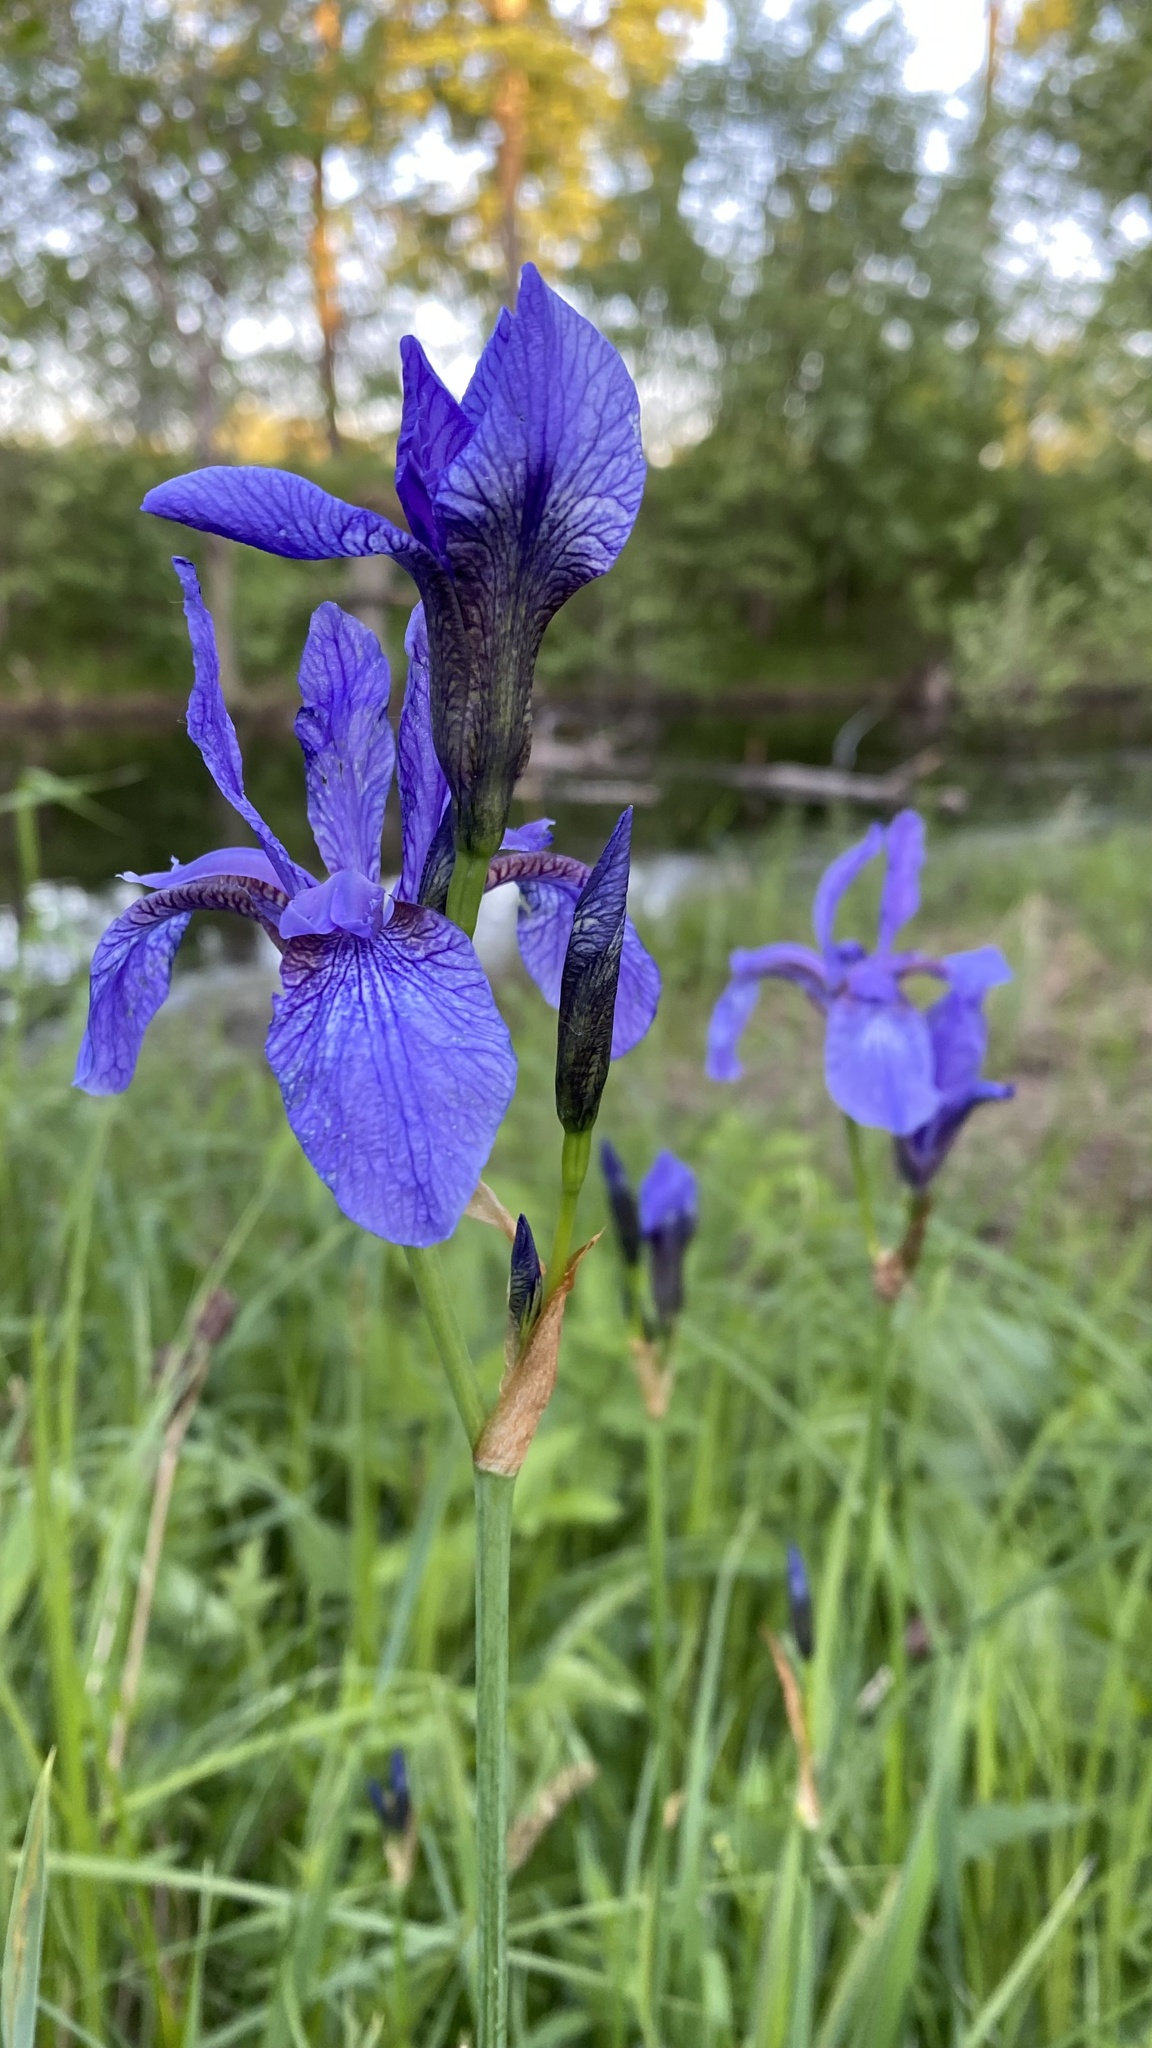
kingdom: Plantae
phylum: Tracheophyta
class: Liliopsida
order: Asparagales
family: Iridaceae
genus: Iris
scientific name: Iris sibirica
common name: Siberian iris
